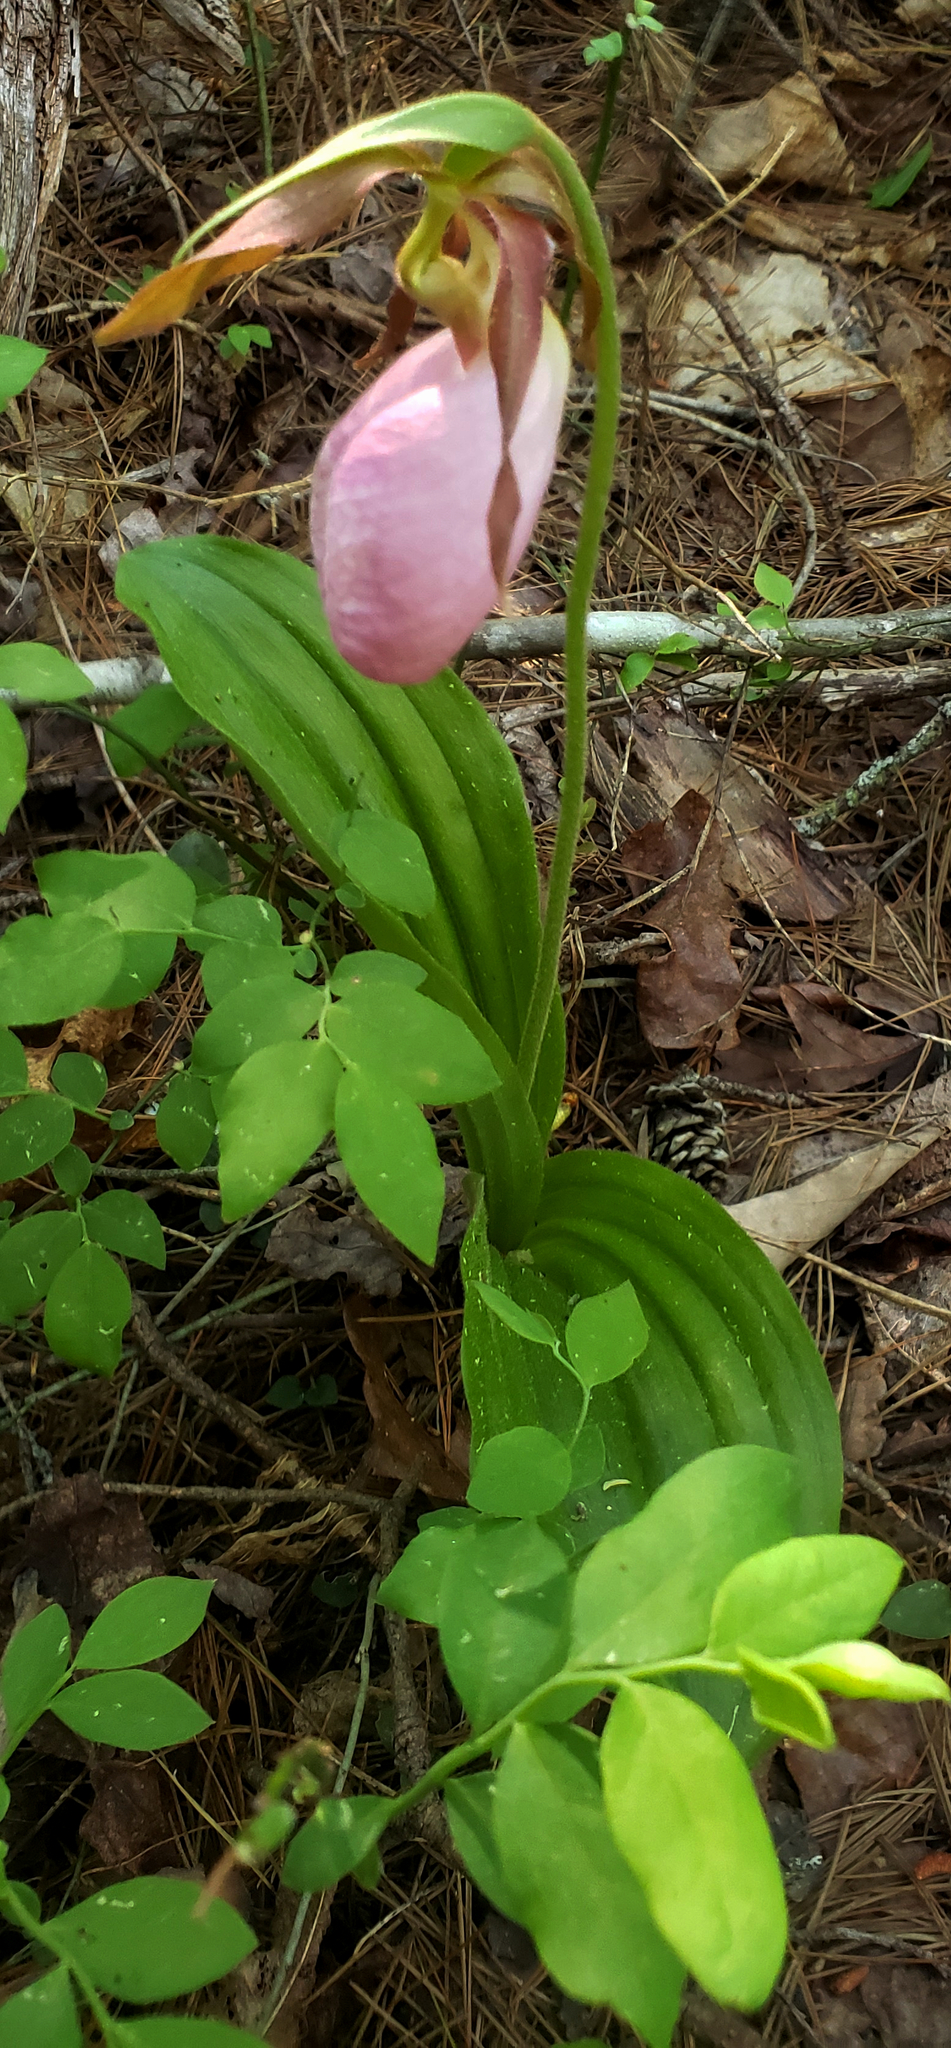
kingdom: Plantae
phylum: Tracheophyta
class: Liliopsida
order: Asparagales
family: Orchidaceae
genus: Cypripedium
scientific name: Cypripedium acaule
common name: Pink lady's-slipper
